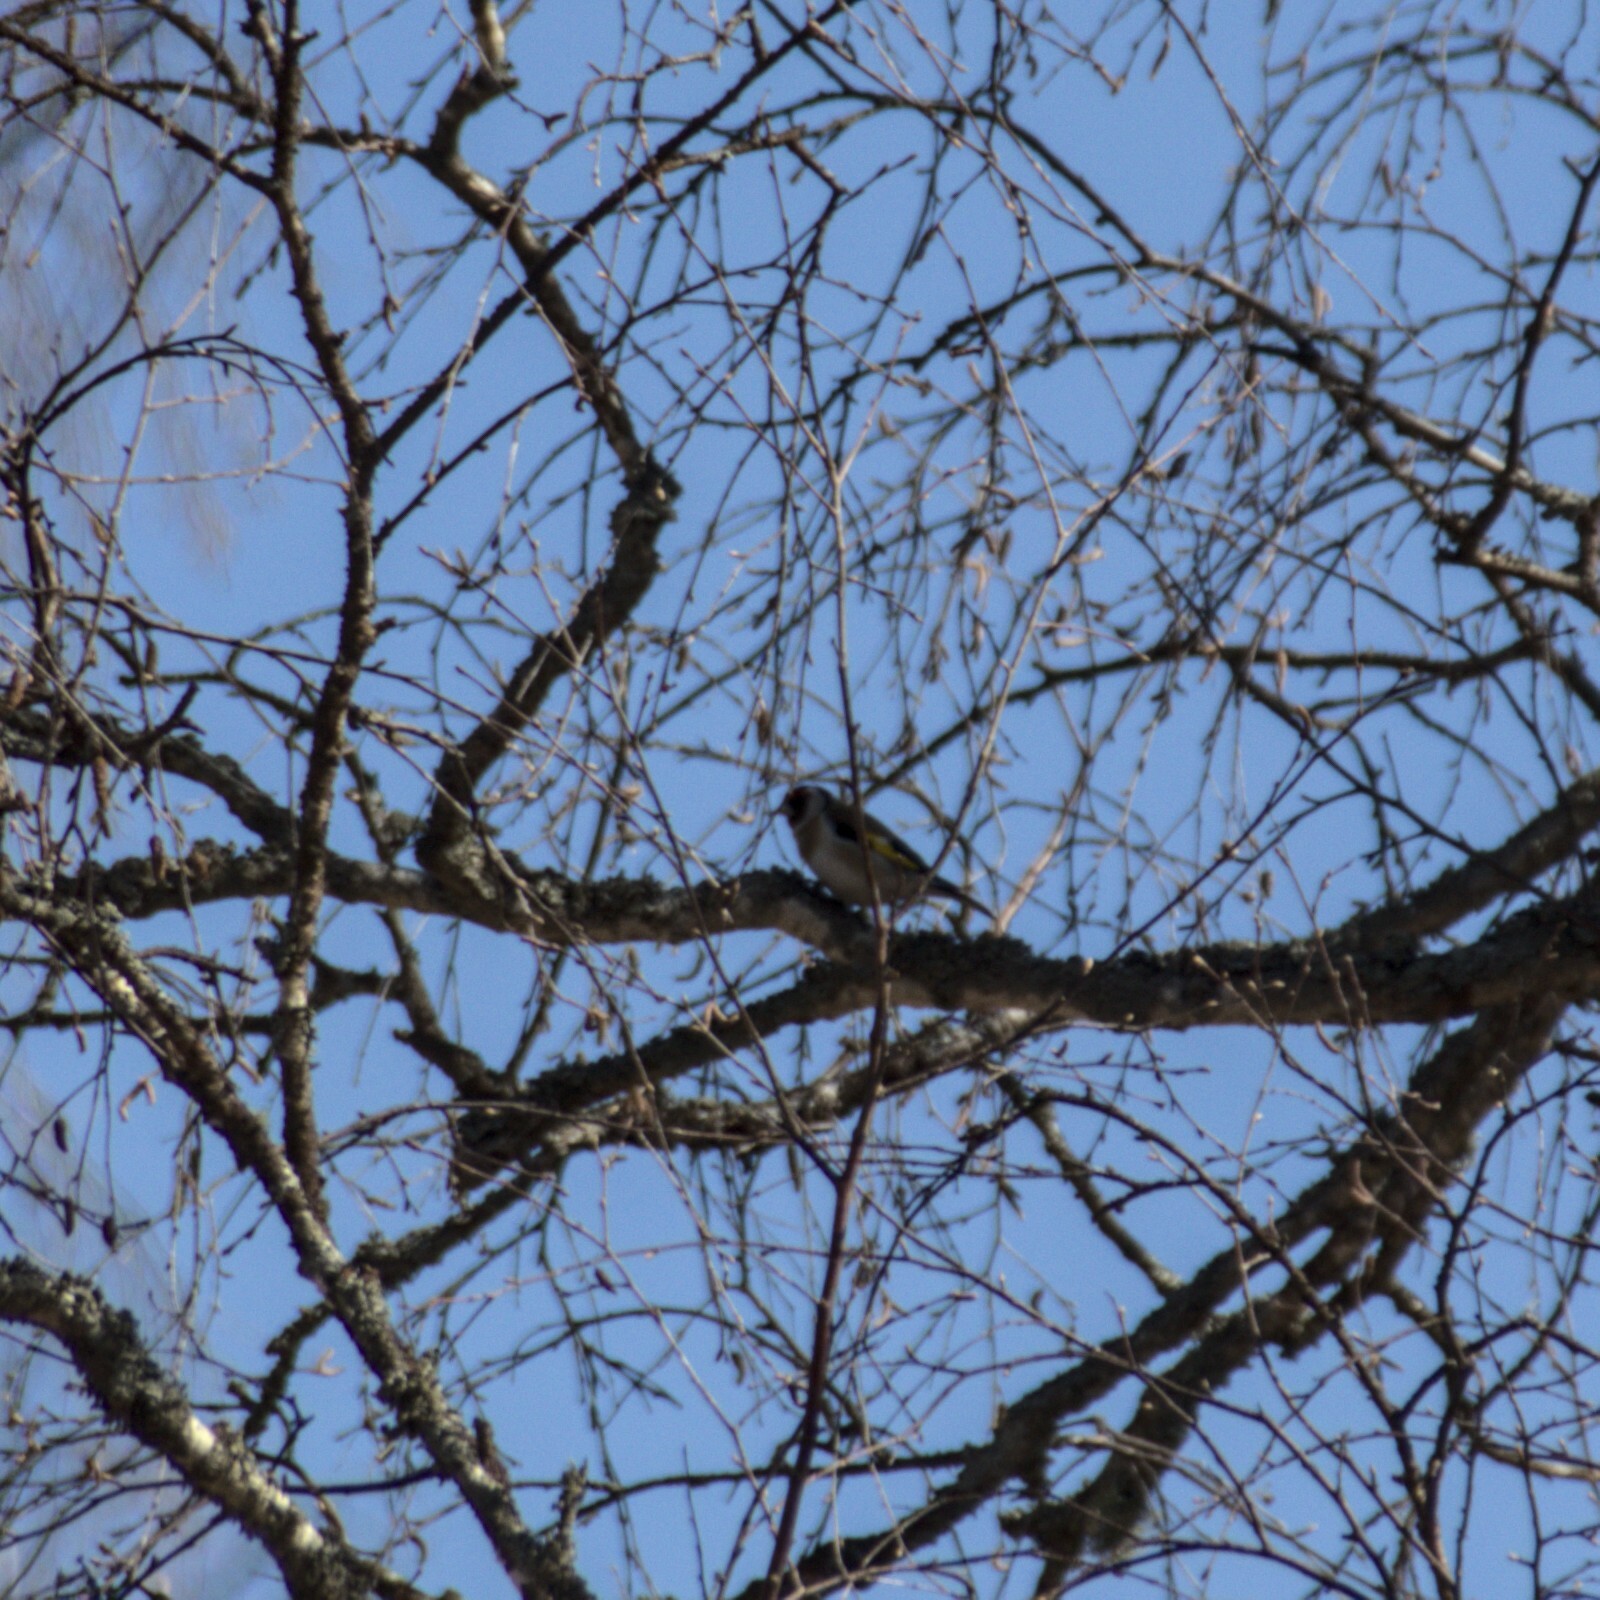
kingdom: Animalia
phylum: Chordata
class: Aves
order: Passeriformes
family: Fringillidae
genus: Carduelis
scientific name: Carduelis carduelis
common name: European goldfinch
